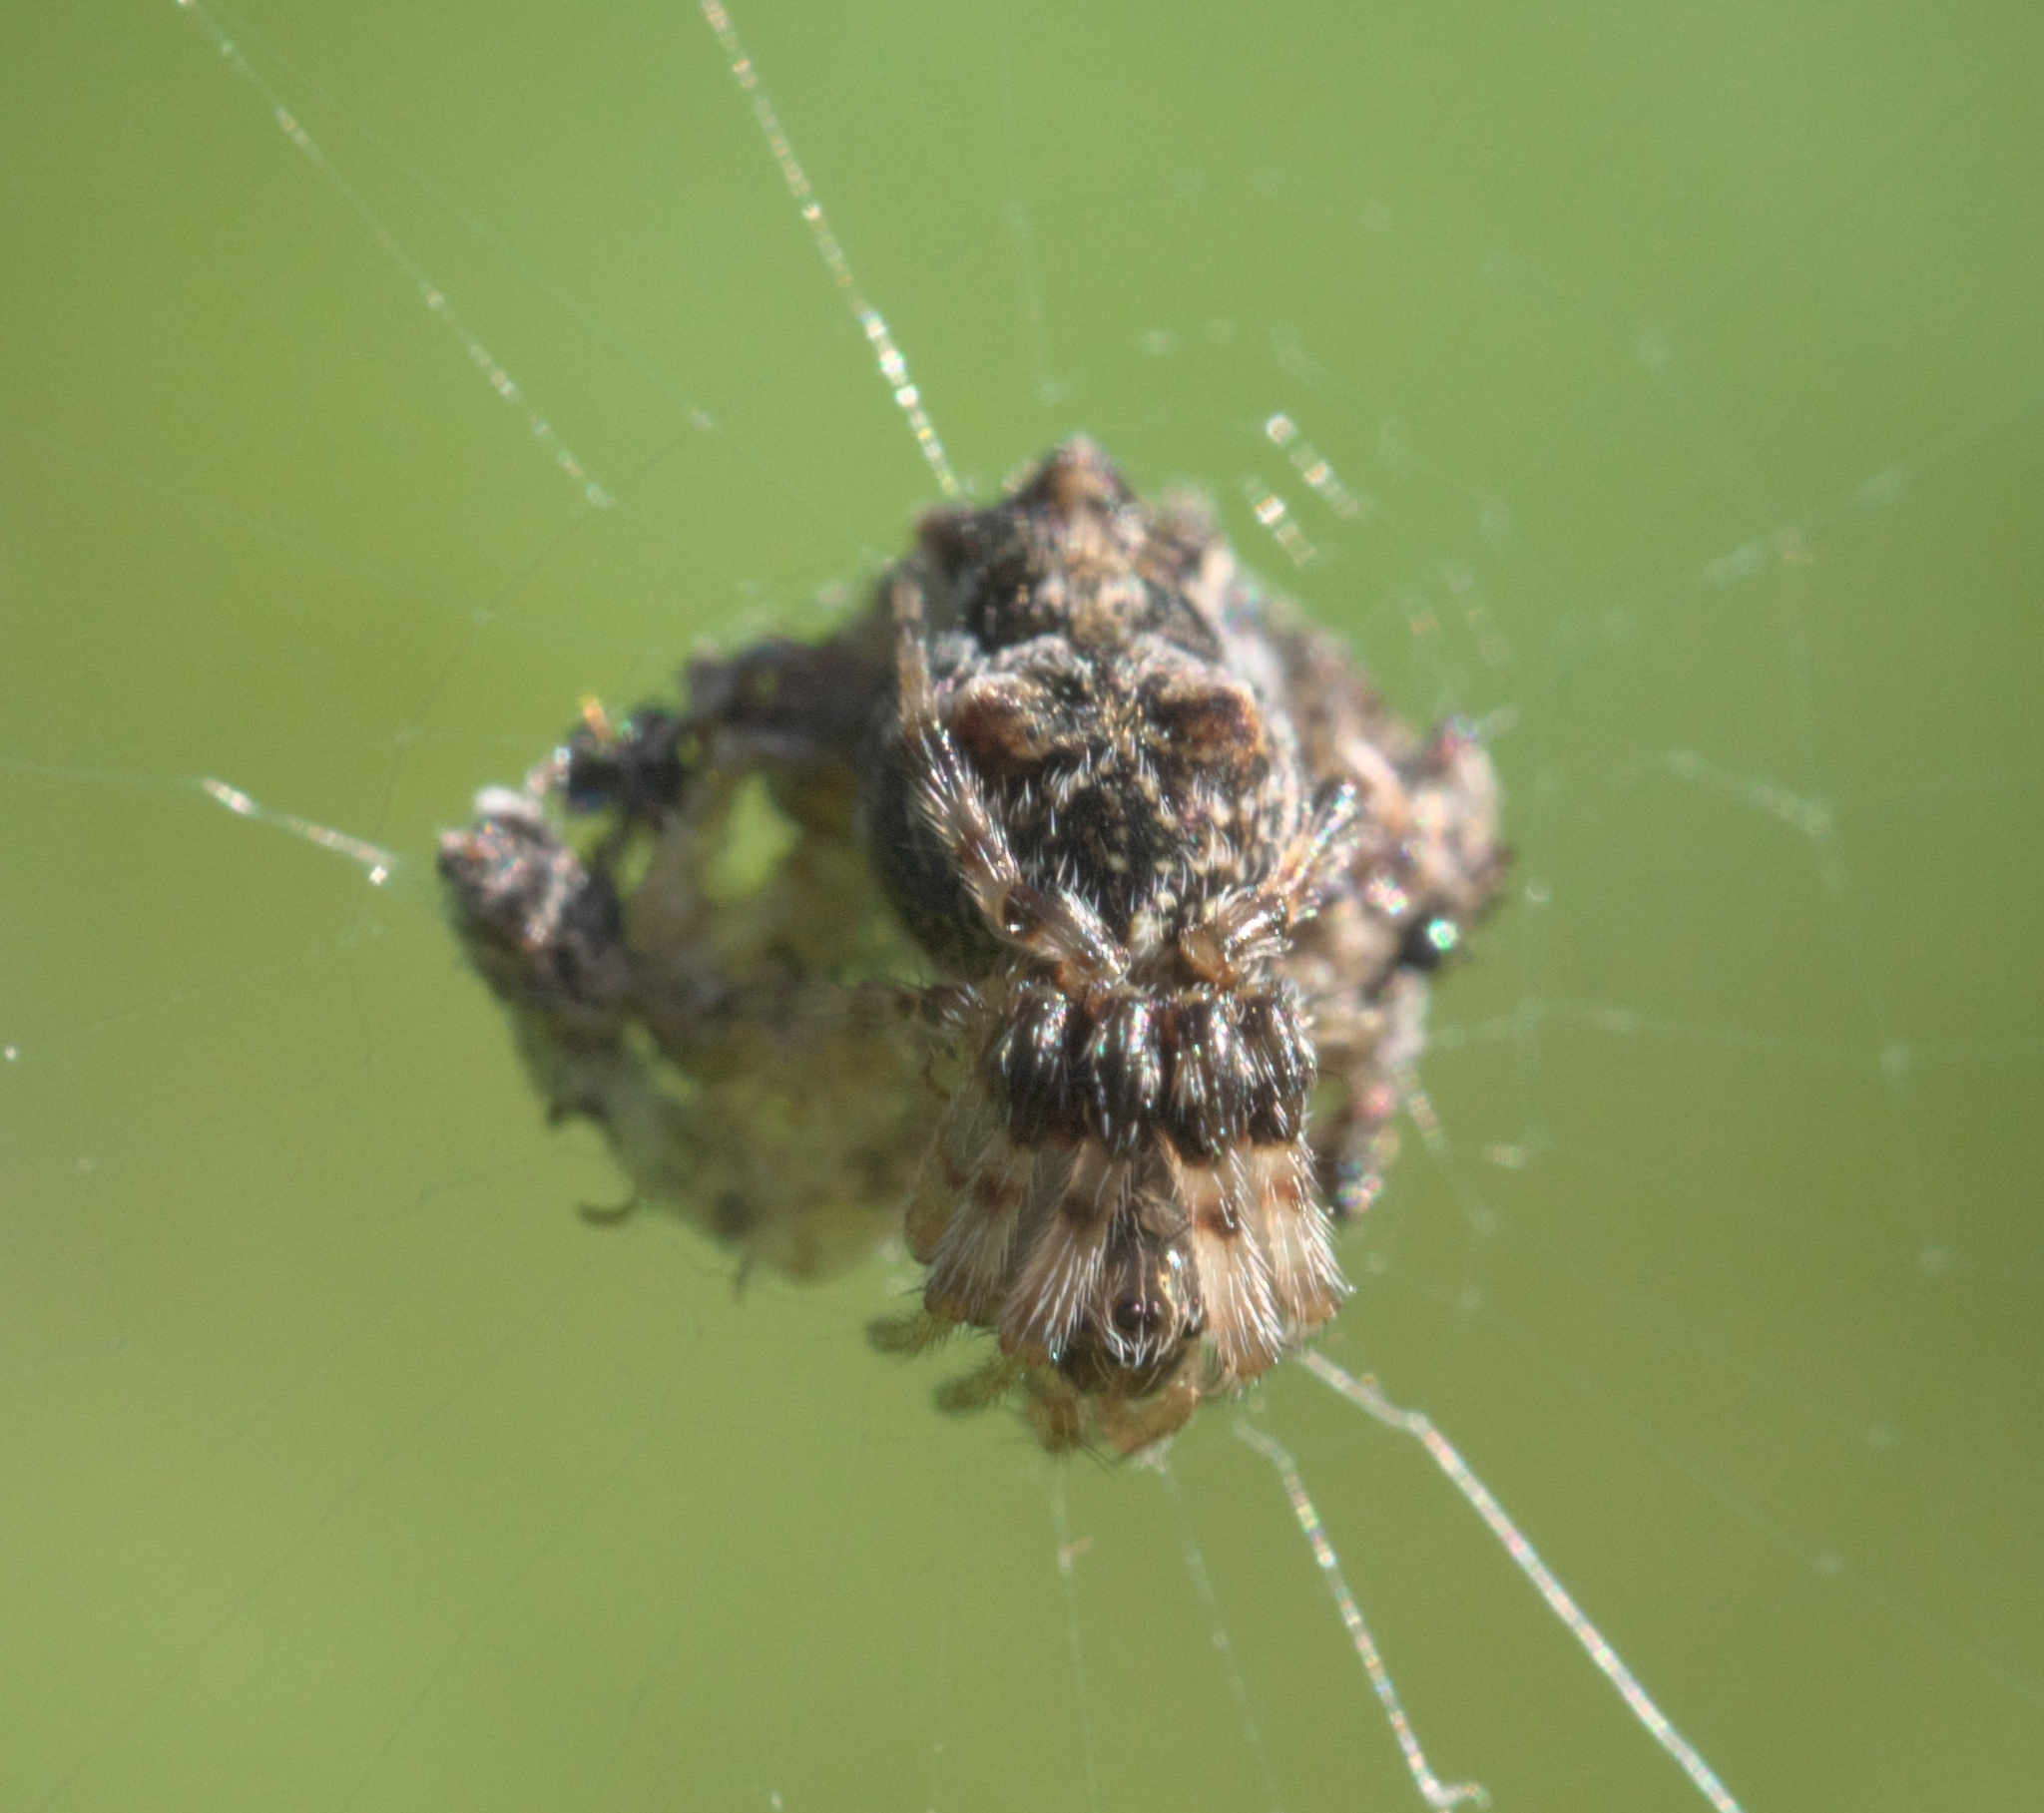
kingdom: Animalia
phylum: Arthropoda
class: Arachnida
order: Araneae
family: Araneidae
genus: Cyclosa
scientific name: Cyclosa walckenaeri
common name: Orb weavers
